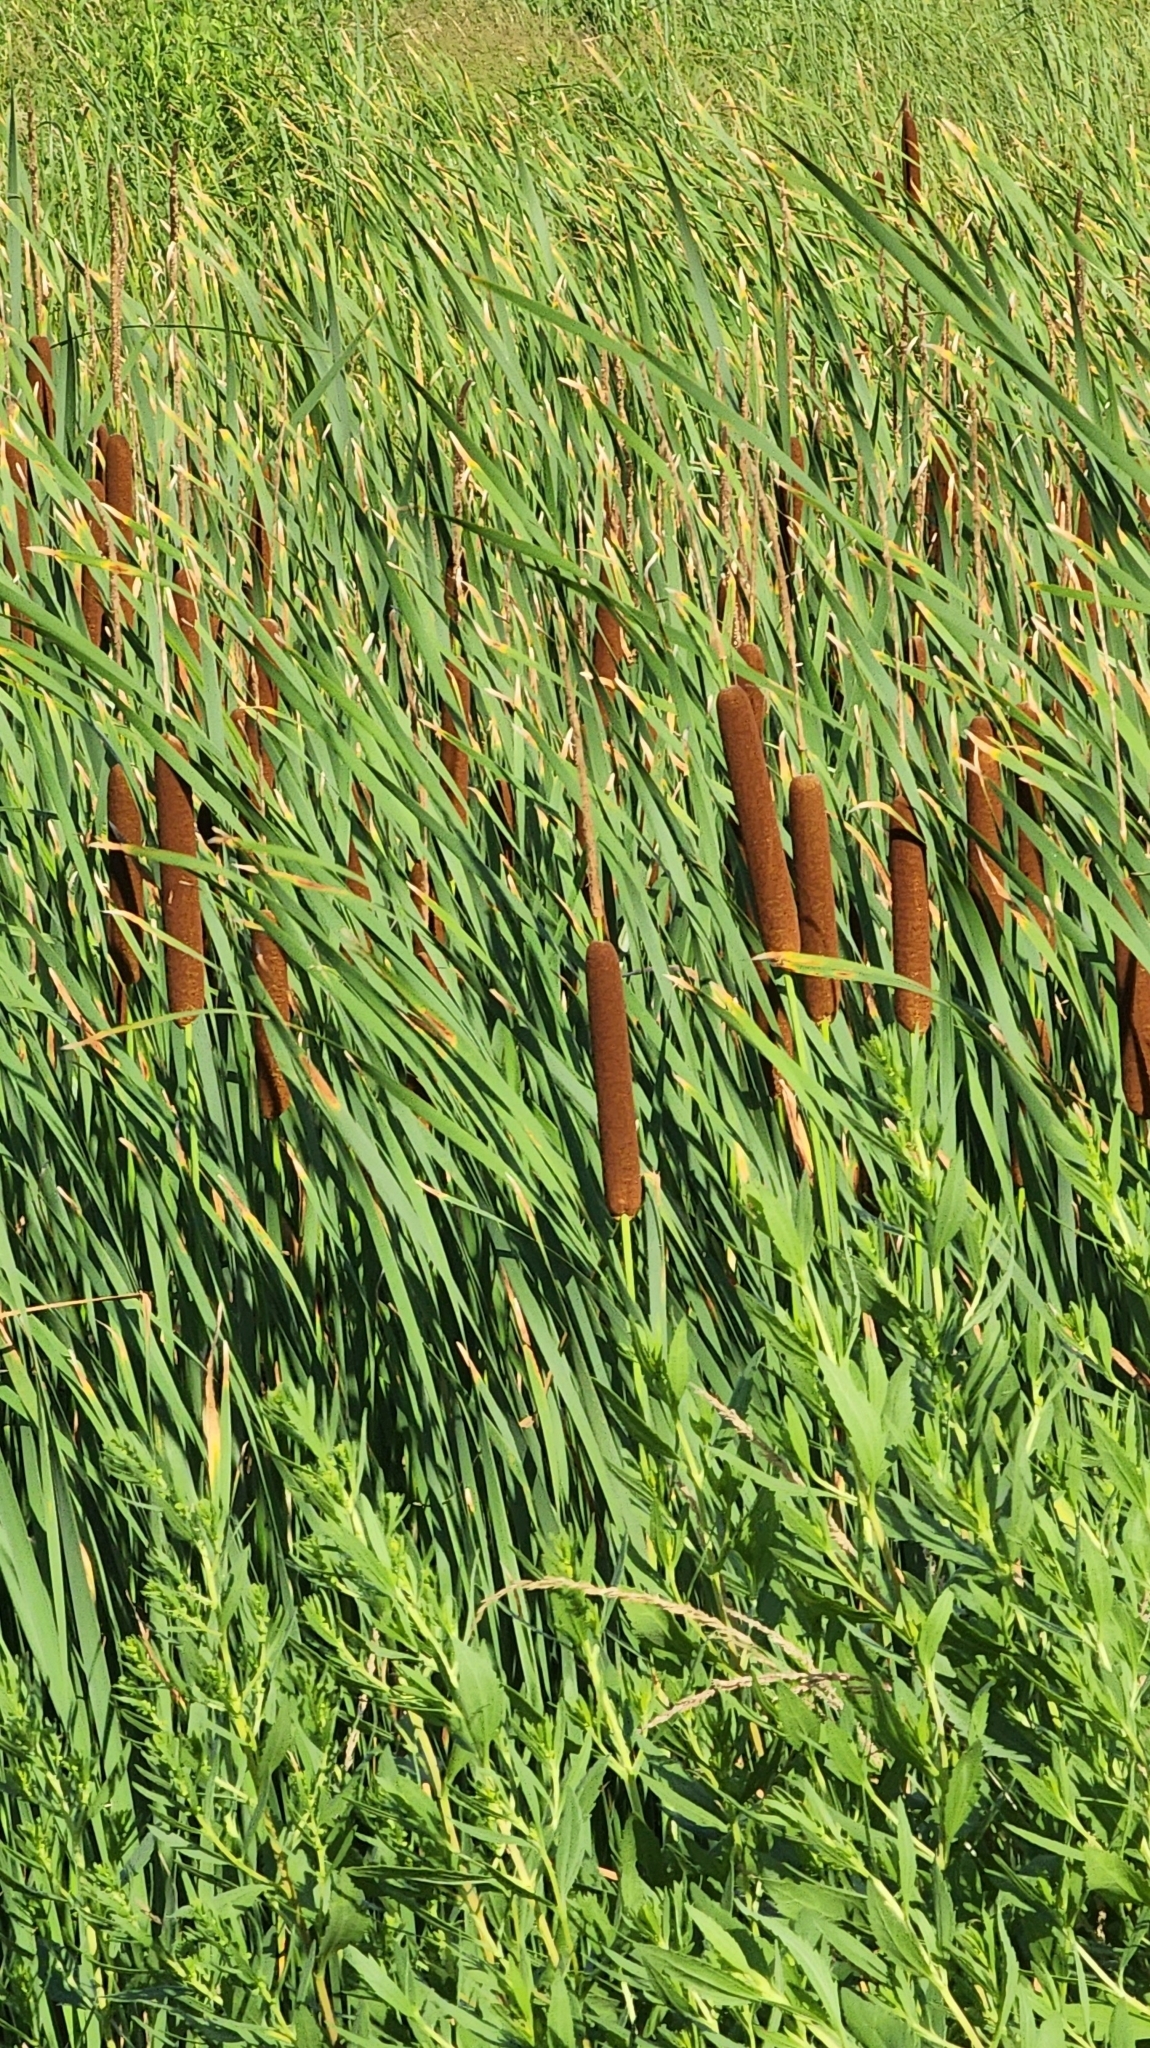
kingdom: Plantae
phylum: Tracheophyta
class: Liliopsida
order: Poales
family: Typhaceae
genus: Typha
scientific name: Typha latifolia
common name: Broadleaf cattail
